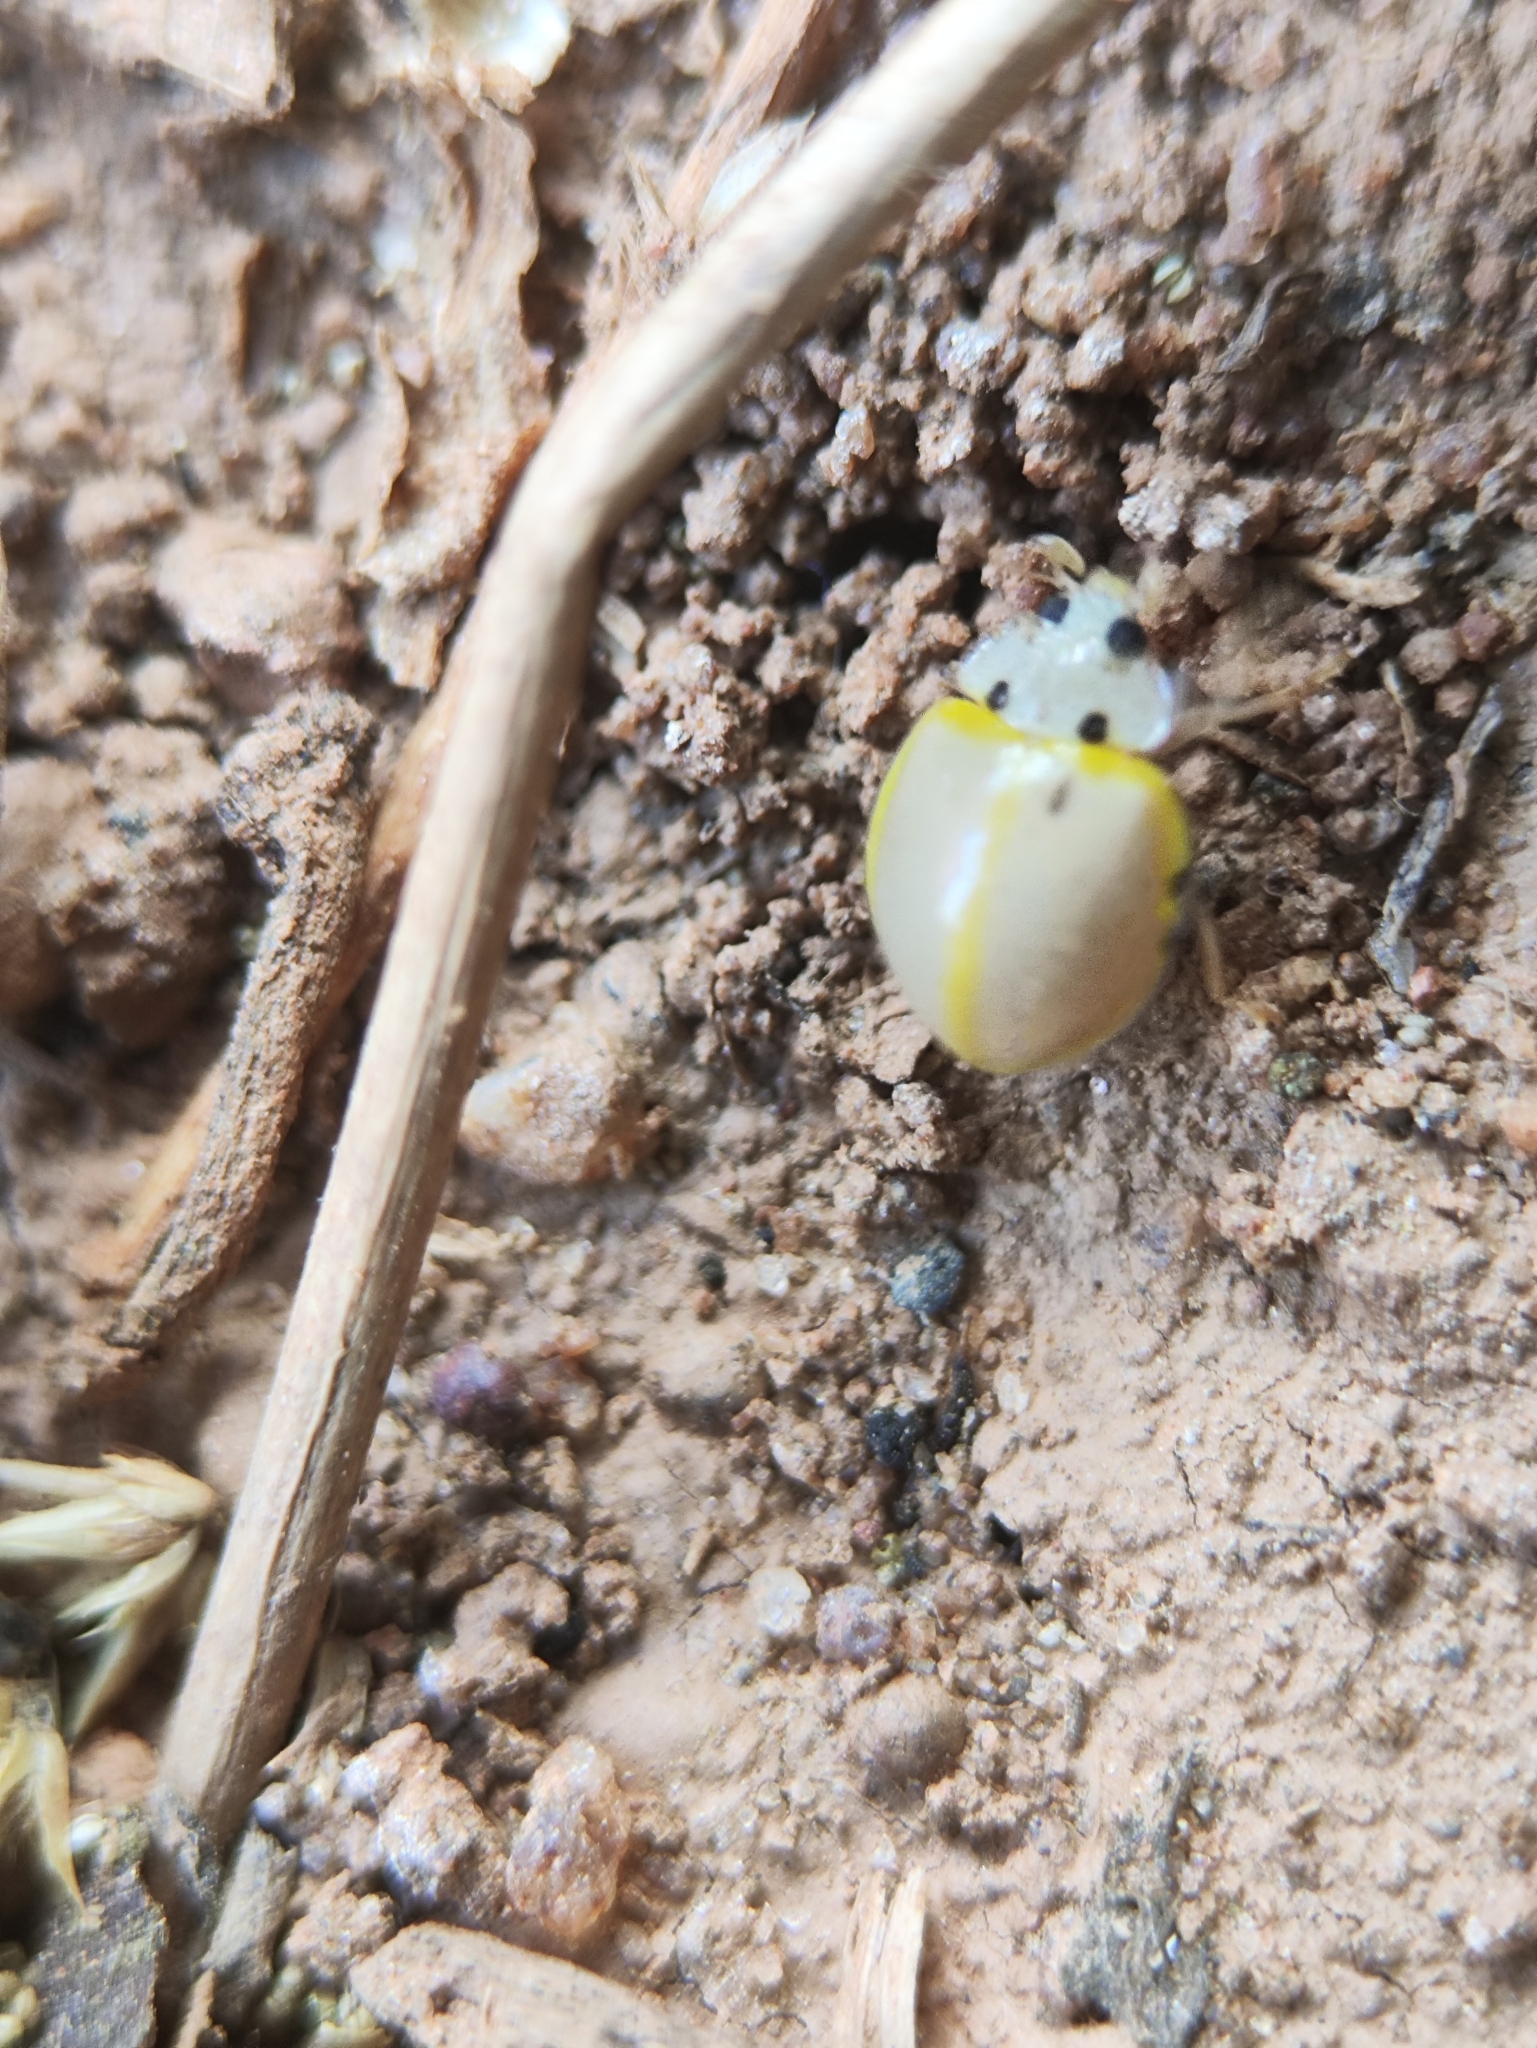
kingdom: Animalia
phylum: Arthropoda
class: Insecta
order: Coleoptera
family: Coccinellidae
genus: Illeis
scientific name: Illeis cincta
